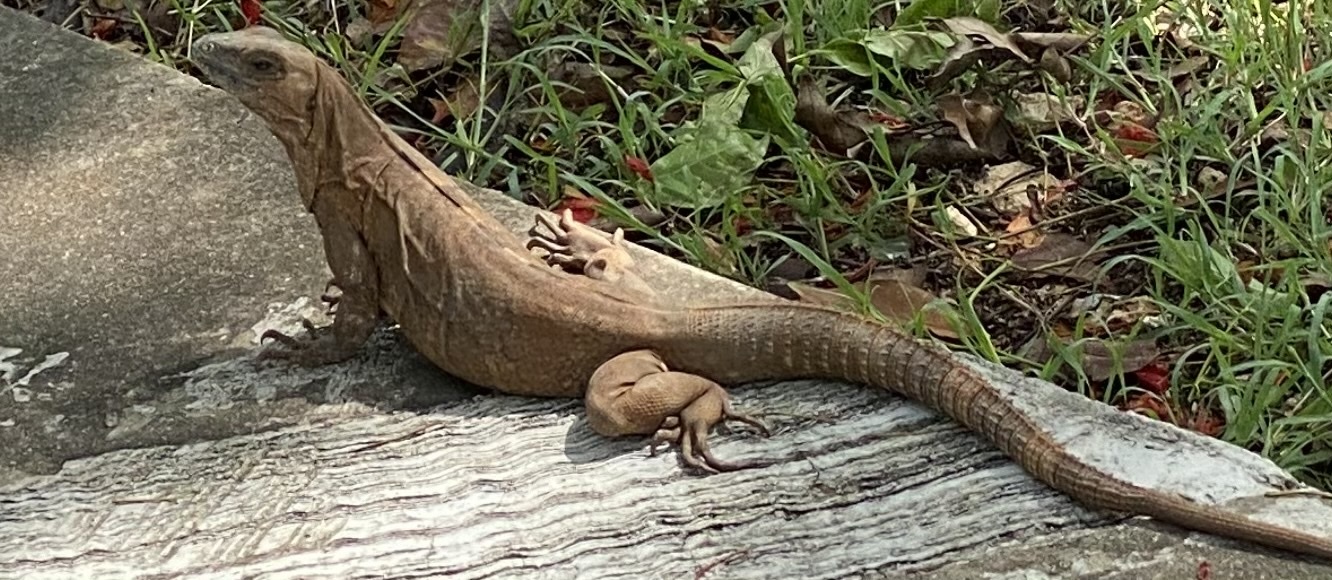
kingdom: Animalia
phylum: Chordata
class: Squamata
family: Iguanidae
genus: Ctenosaura
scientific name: Ctenosaura similis
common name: Black spiny-tailed iguana
